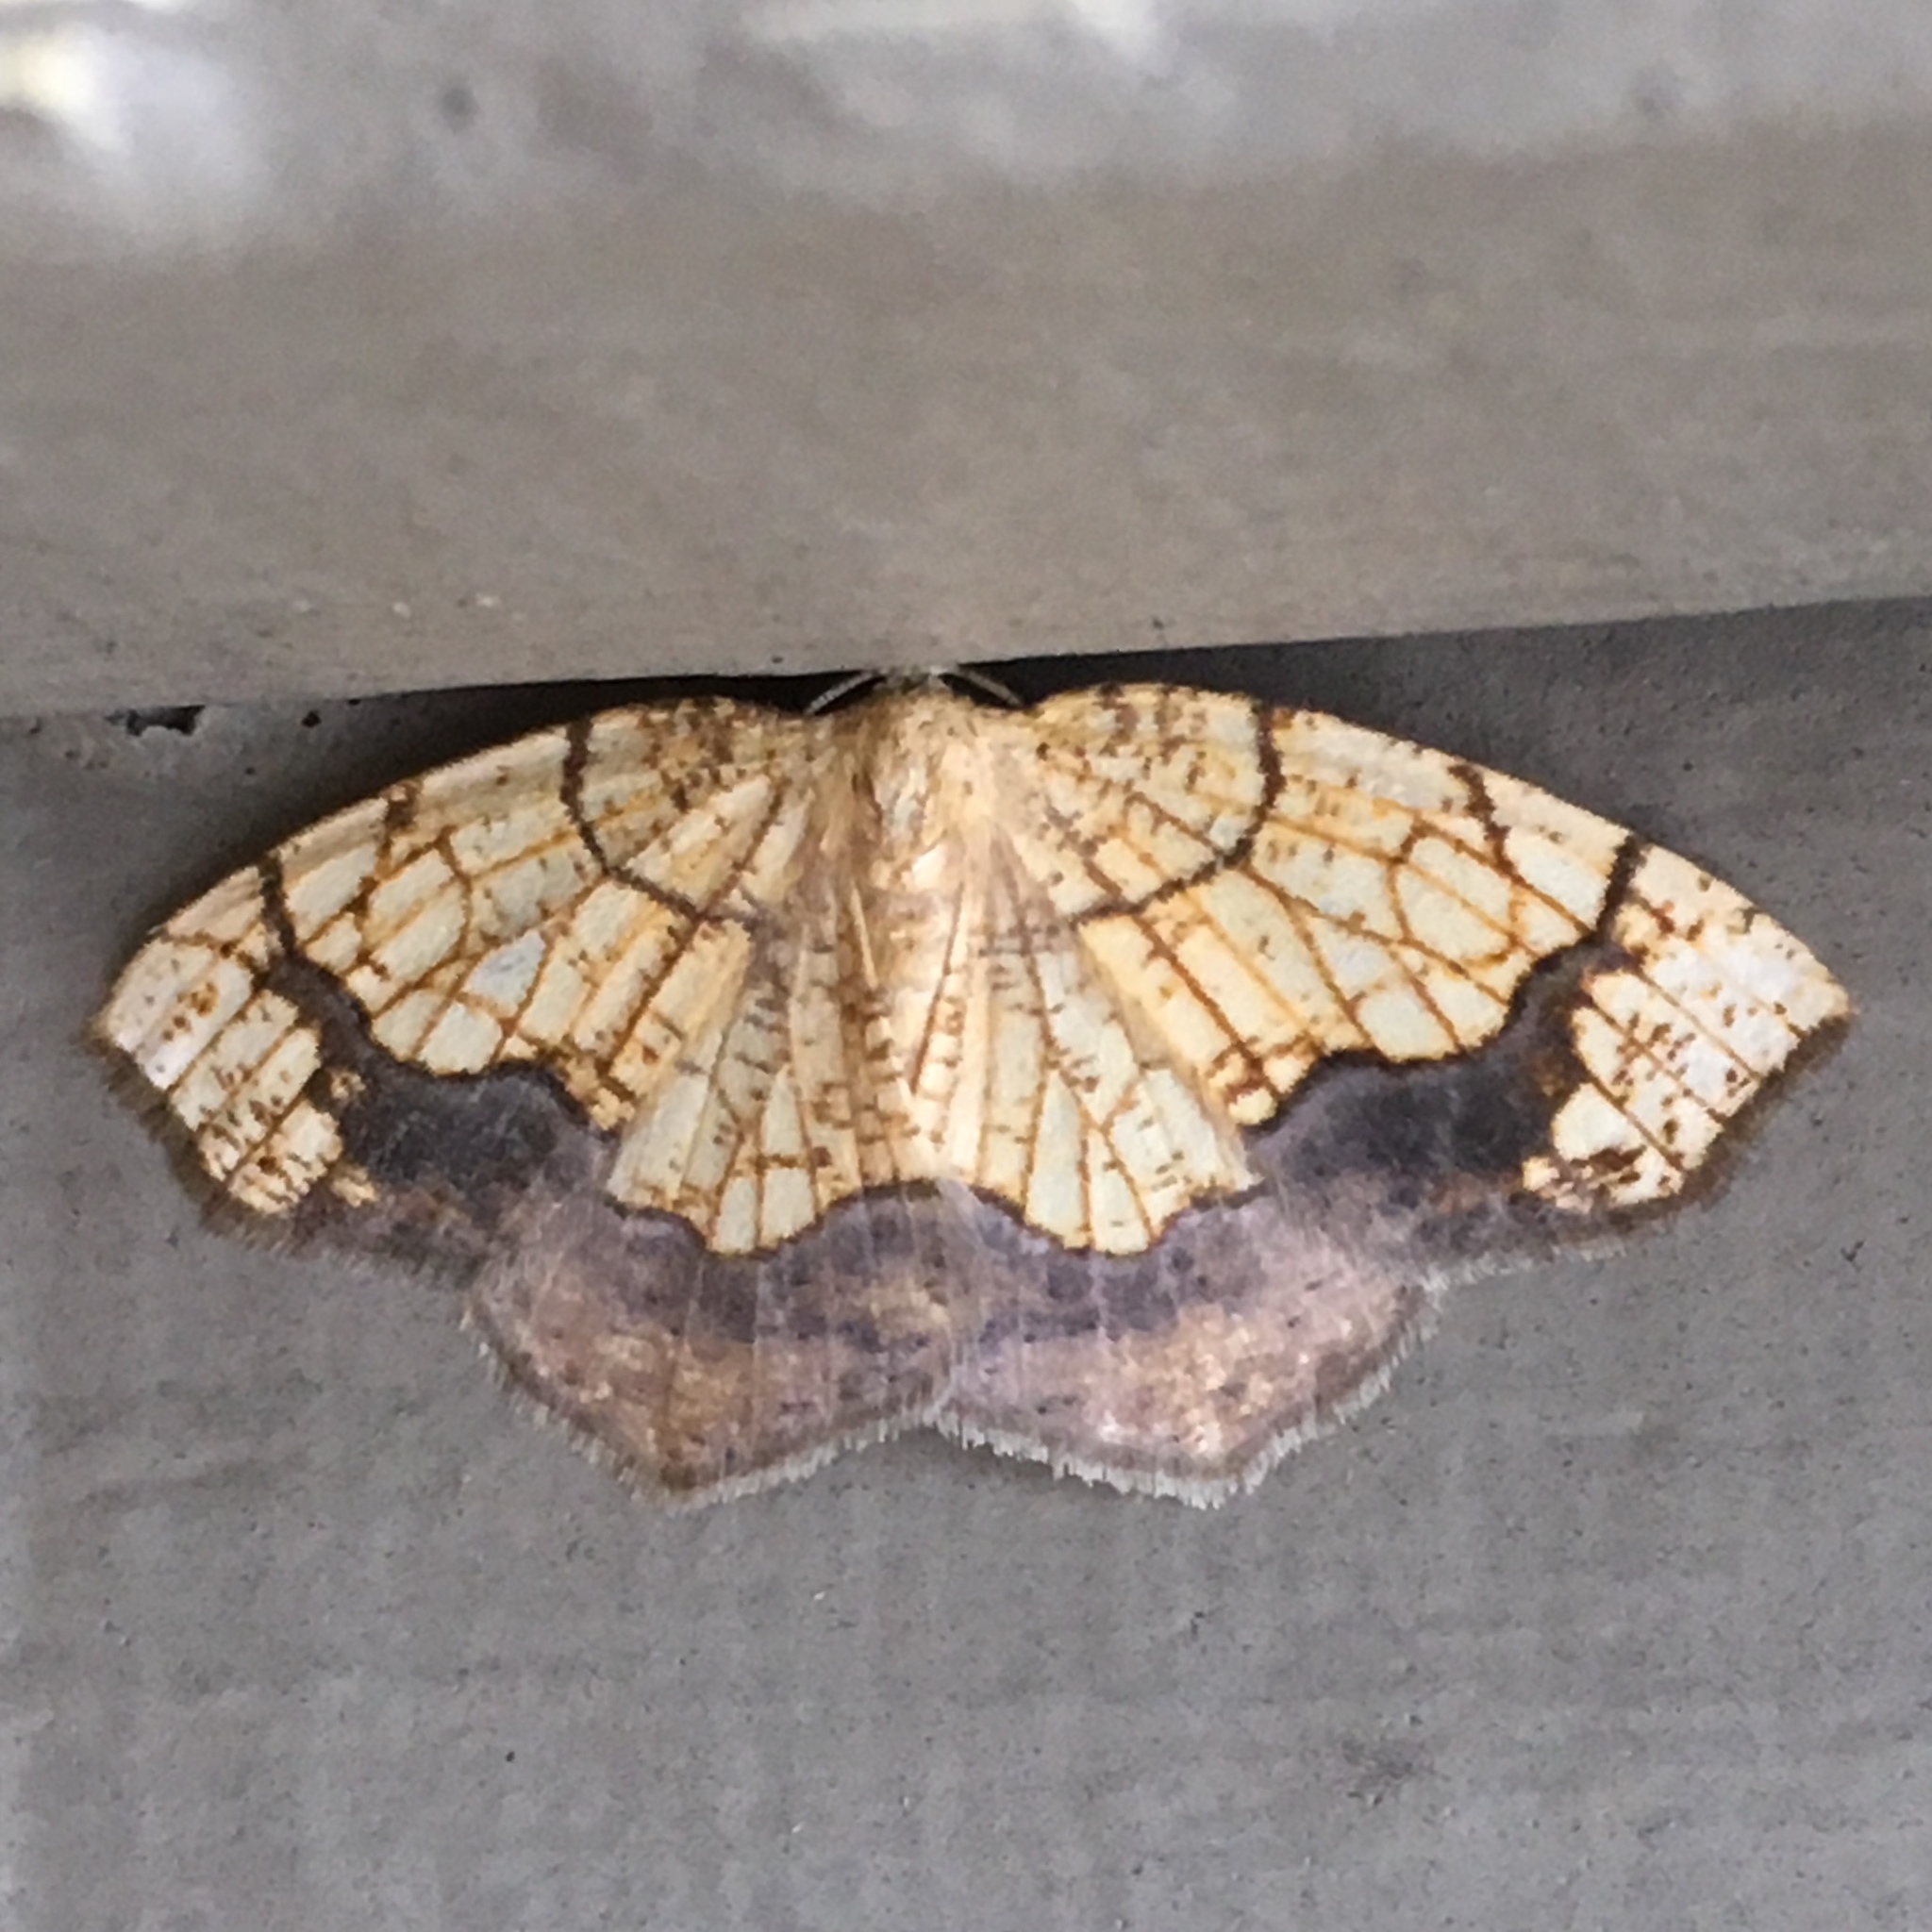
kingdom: Animalia
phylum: Arthropoda
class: Insecta
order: Lepidoptera
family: Geometridae
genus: Nematocampa
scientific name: Nematocampa resistaria
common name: Horned spanworm moth
